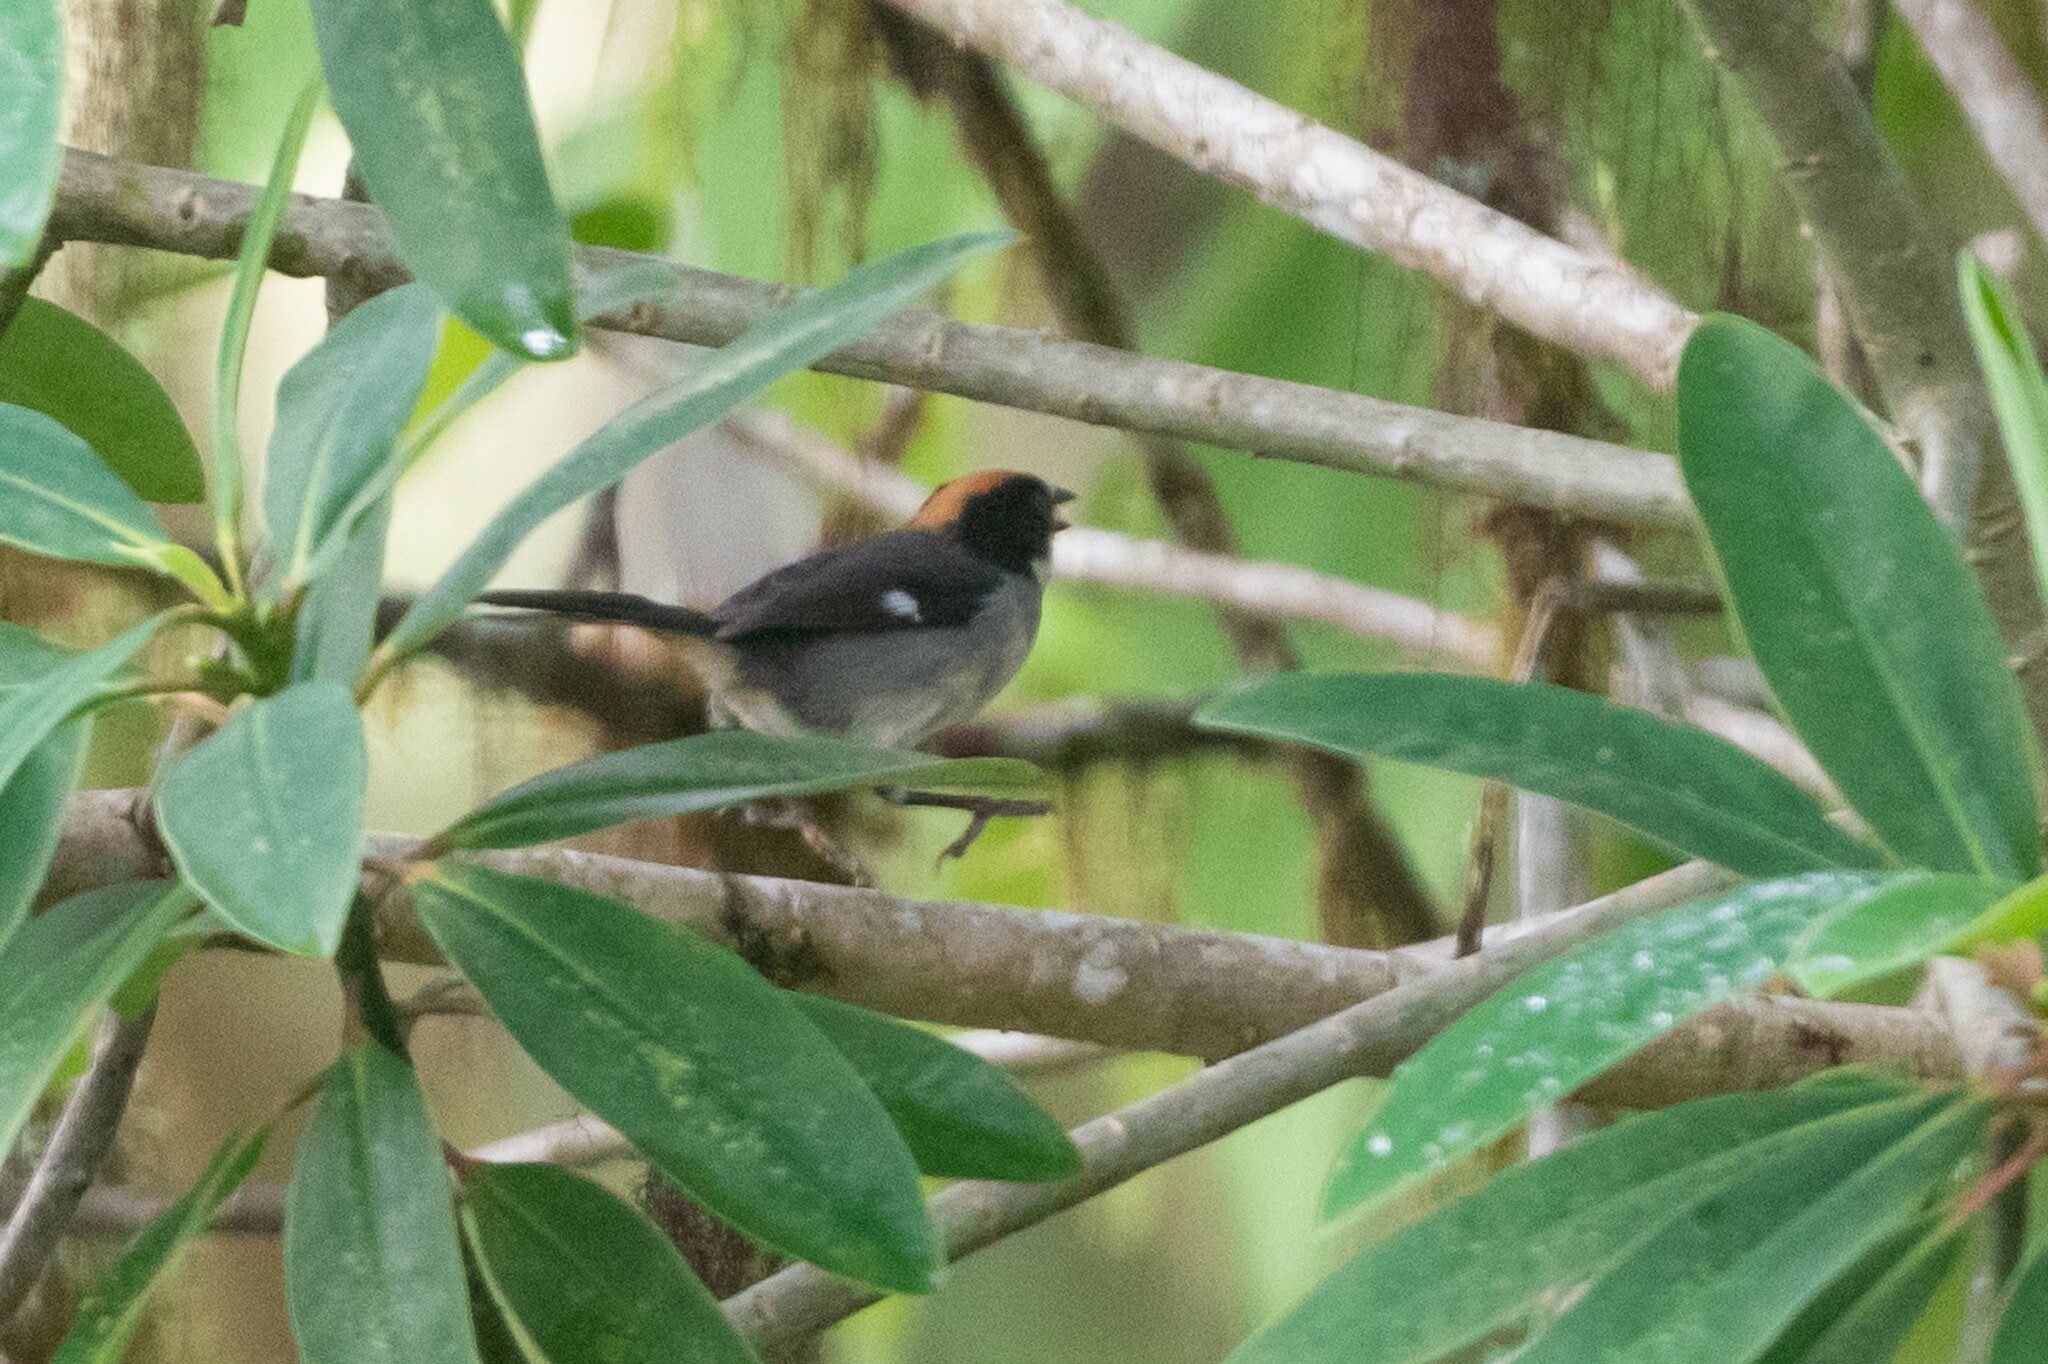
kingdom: Animalia
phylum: Chordata
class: Aves
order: Passeriformes
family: Passerellidae
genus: Atlapetes
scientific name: Atlapetes leucopterus
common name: White-winged brushfinch
